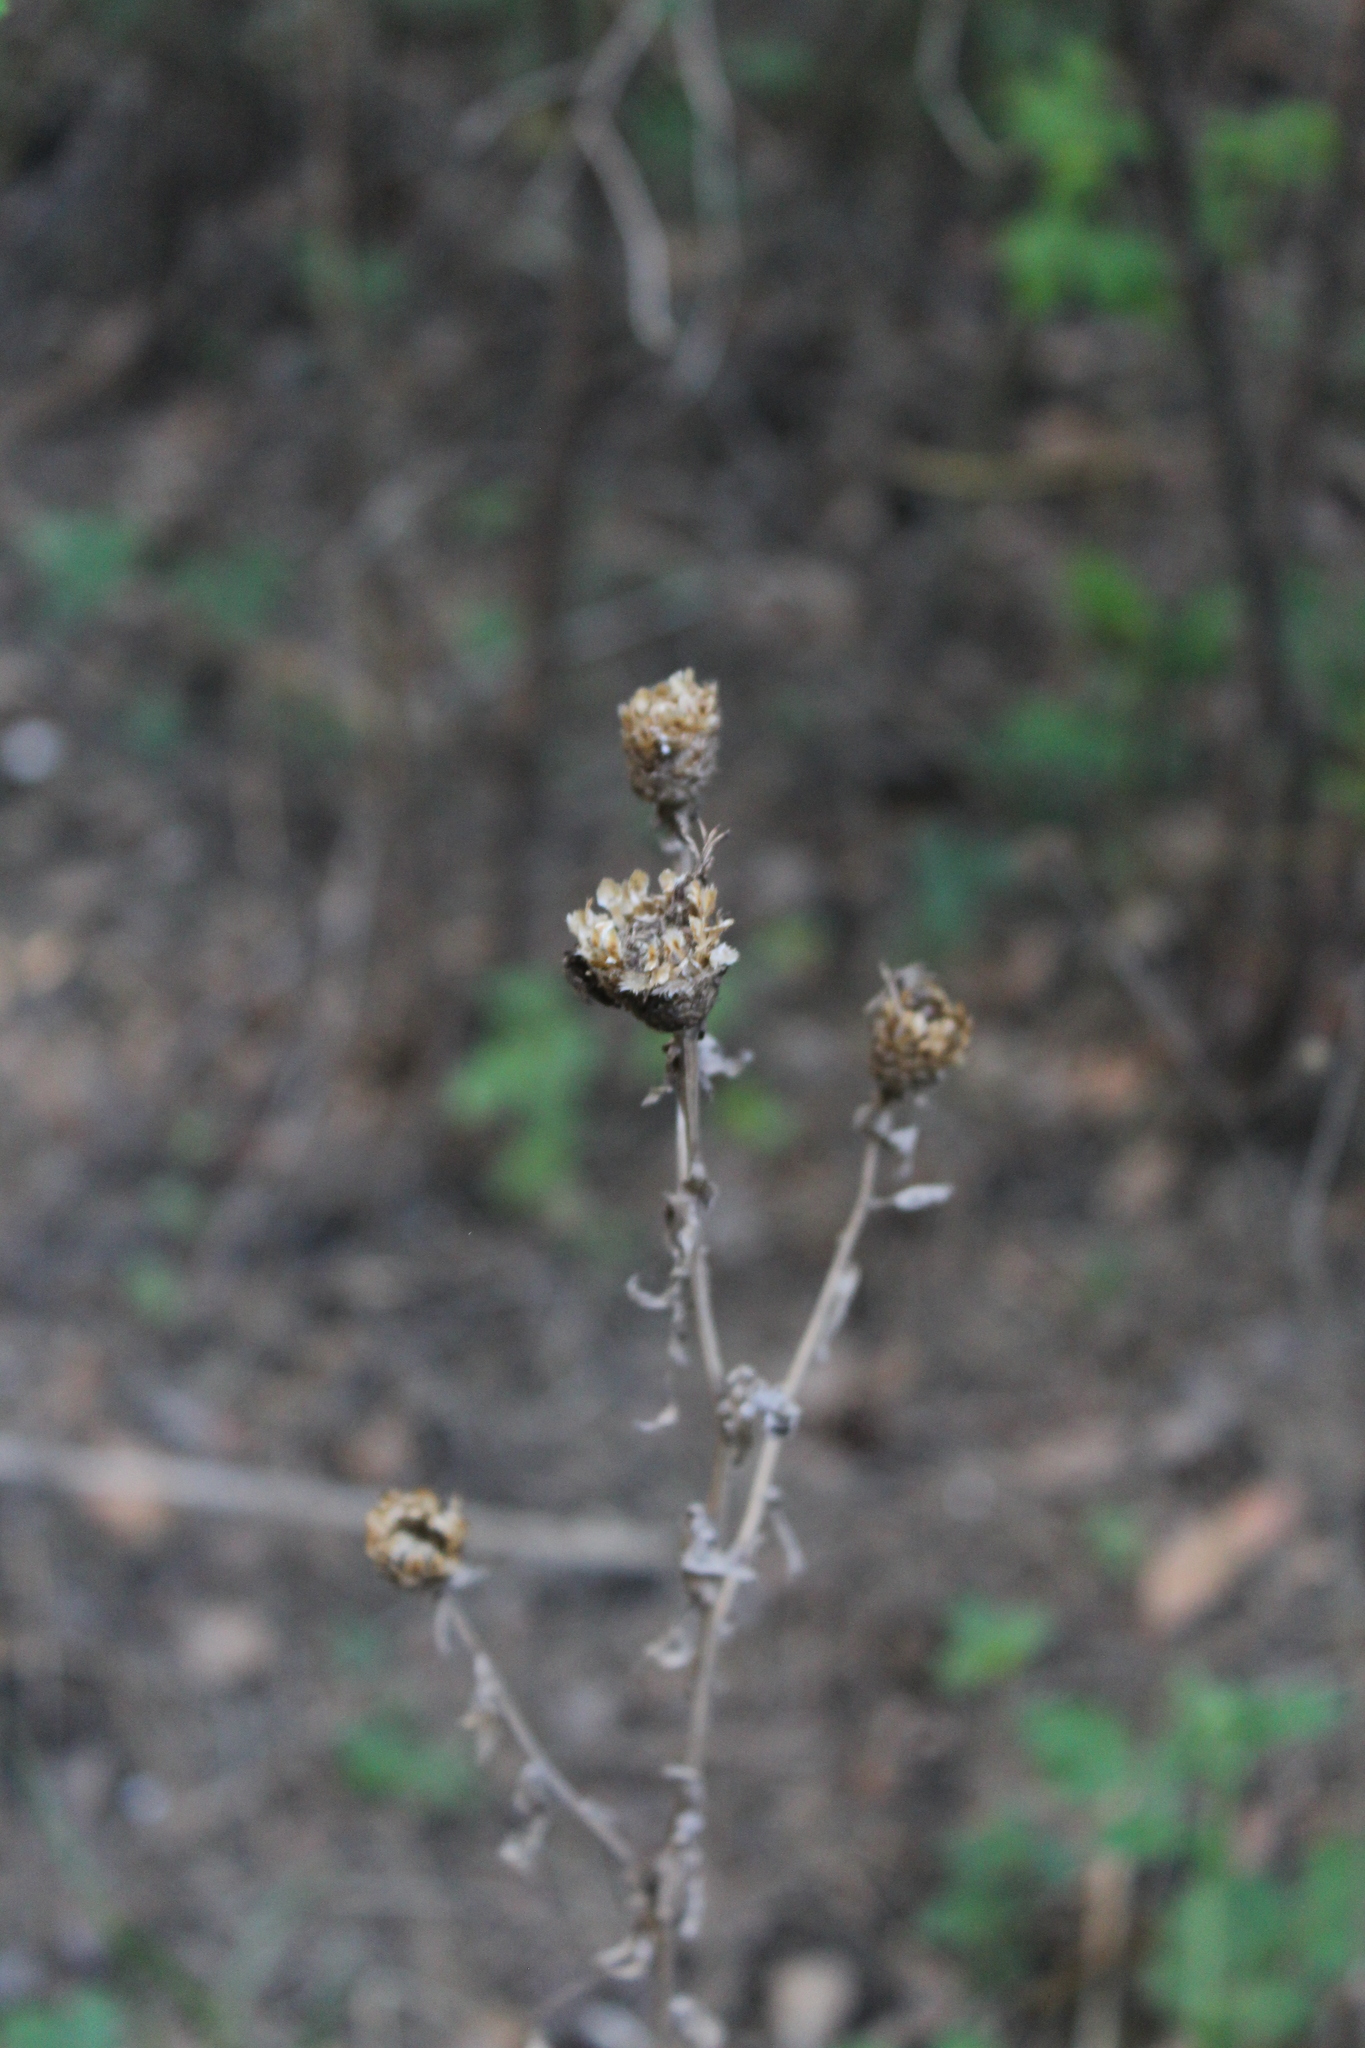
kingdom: Plantae
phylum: Tracheophyta
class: Magnoliopsida
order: Asterales
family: Asteraceae
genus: Centaurea
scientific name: Centaurea jacea
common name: Brown knapweed
